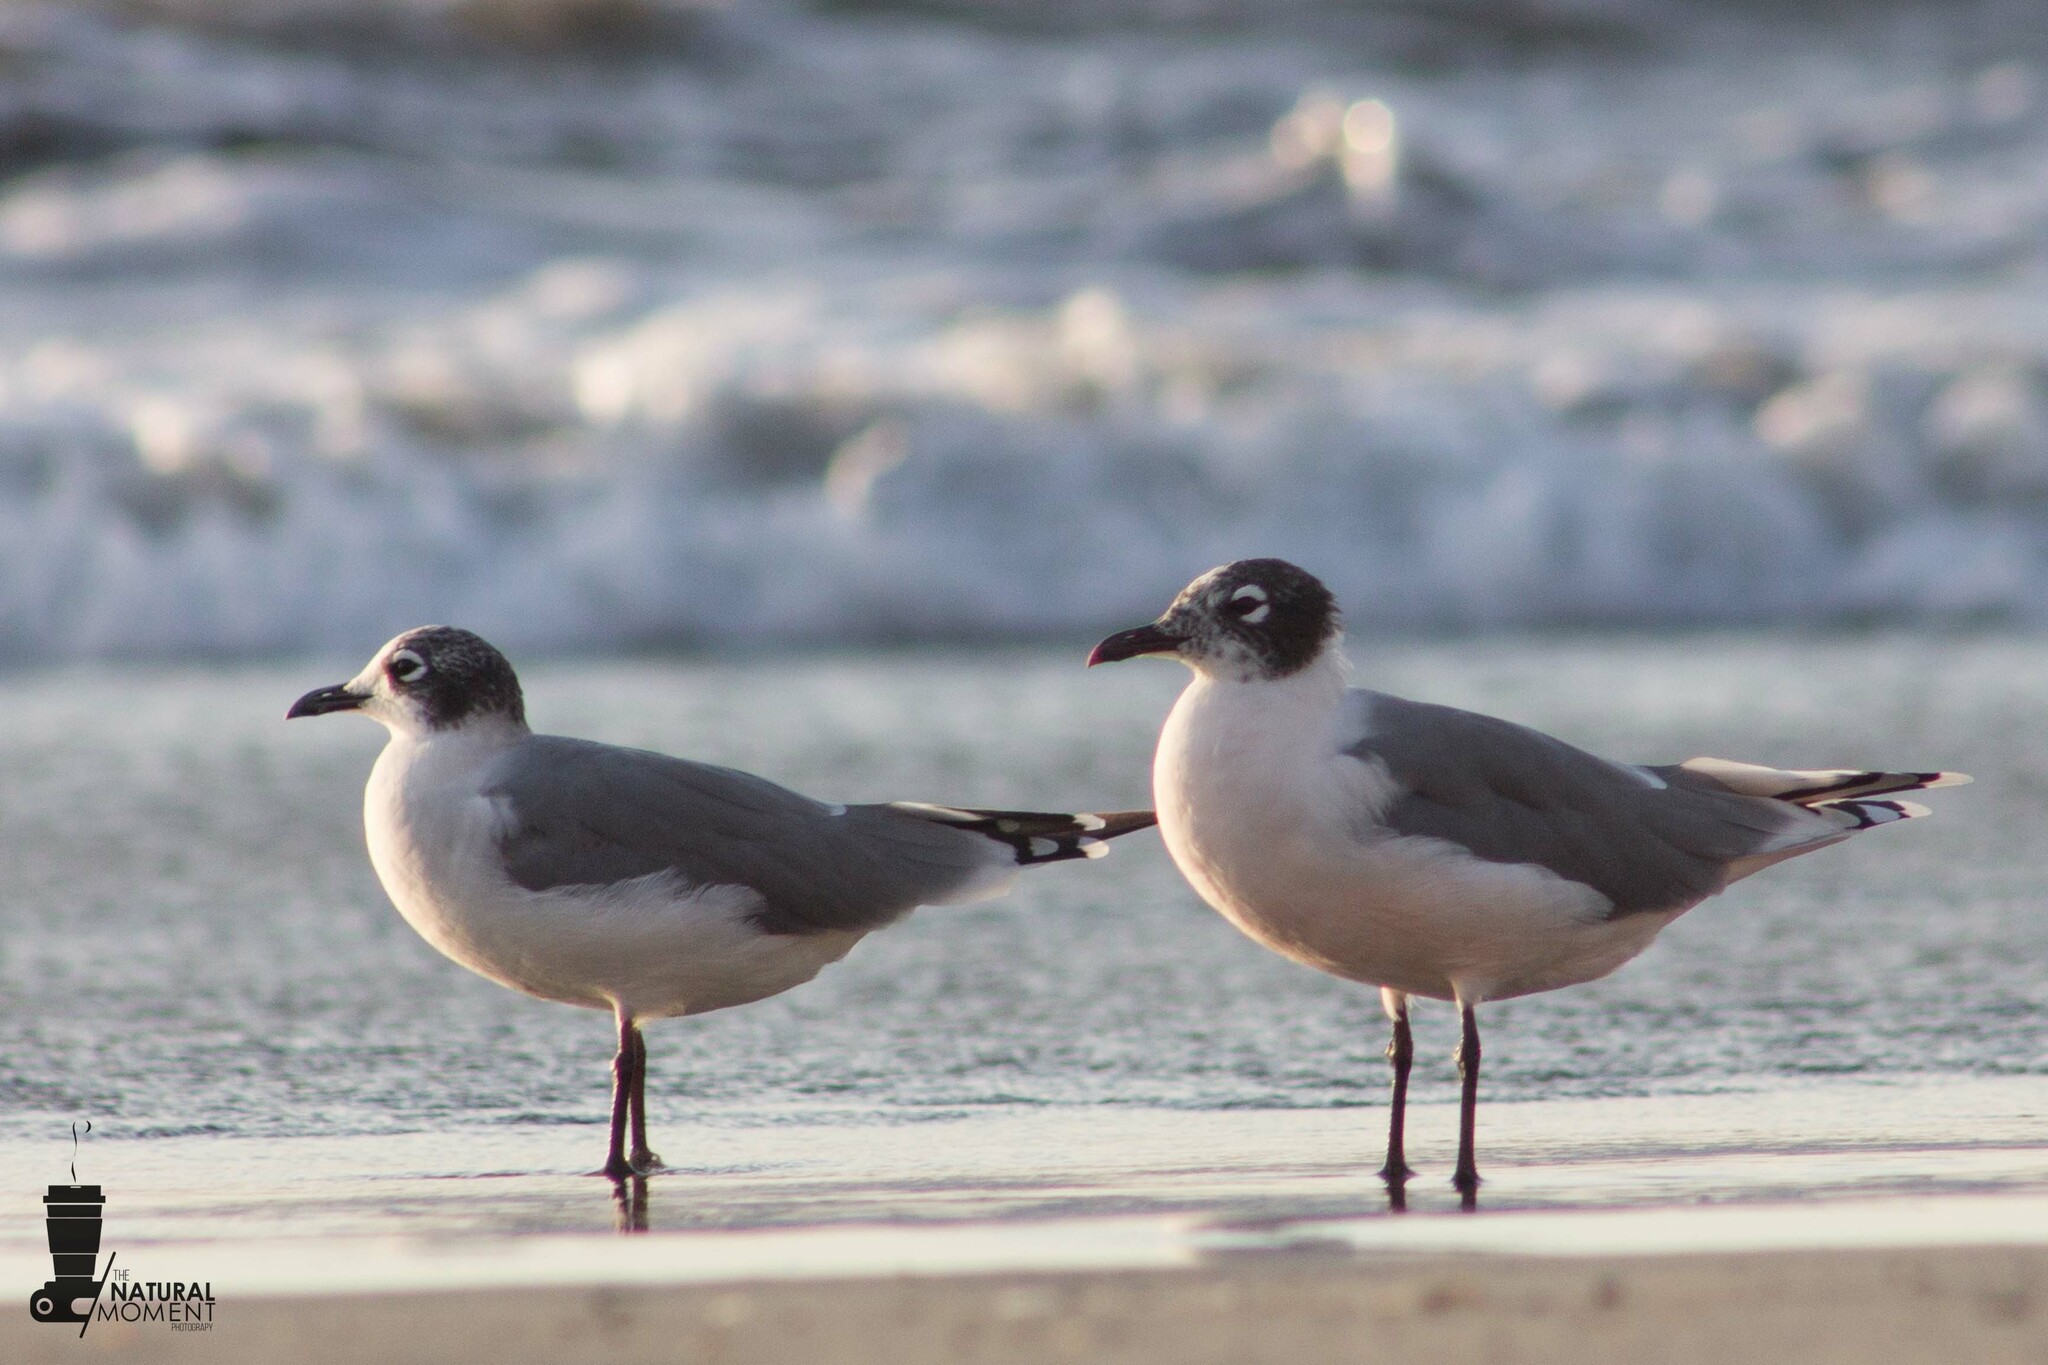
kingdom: Animalia
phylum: Chordata
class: Aves
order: Charadriiformes
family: Laridae
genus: Leucophaeus
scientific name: Leucophaeus pipixcan
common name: Franklin's gull
